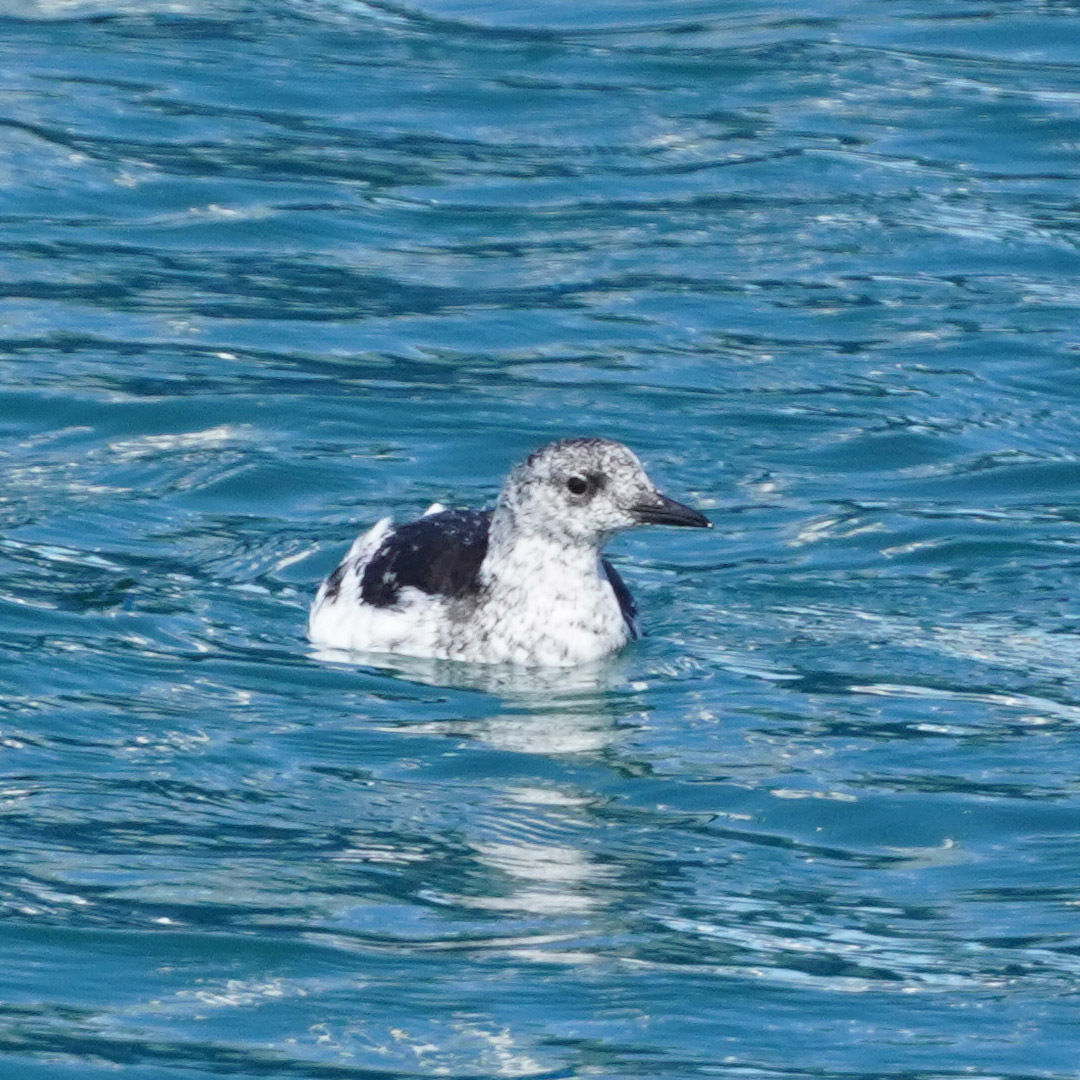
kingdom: Animalia
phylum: Chordata
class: Aves
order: Charadriiformes
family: Alcidae
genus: Cepphus
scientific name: Cepphus grylle
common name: Black guillemot
